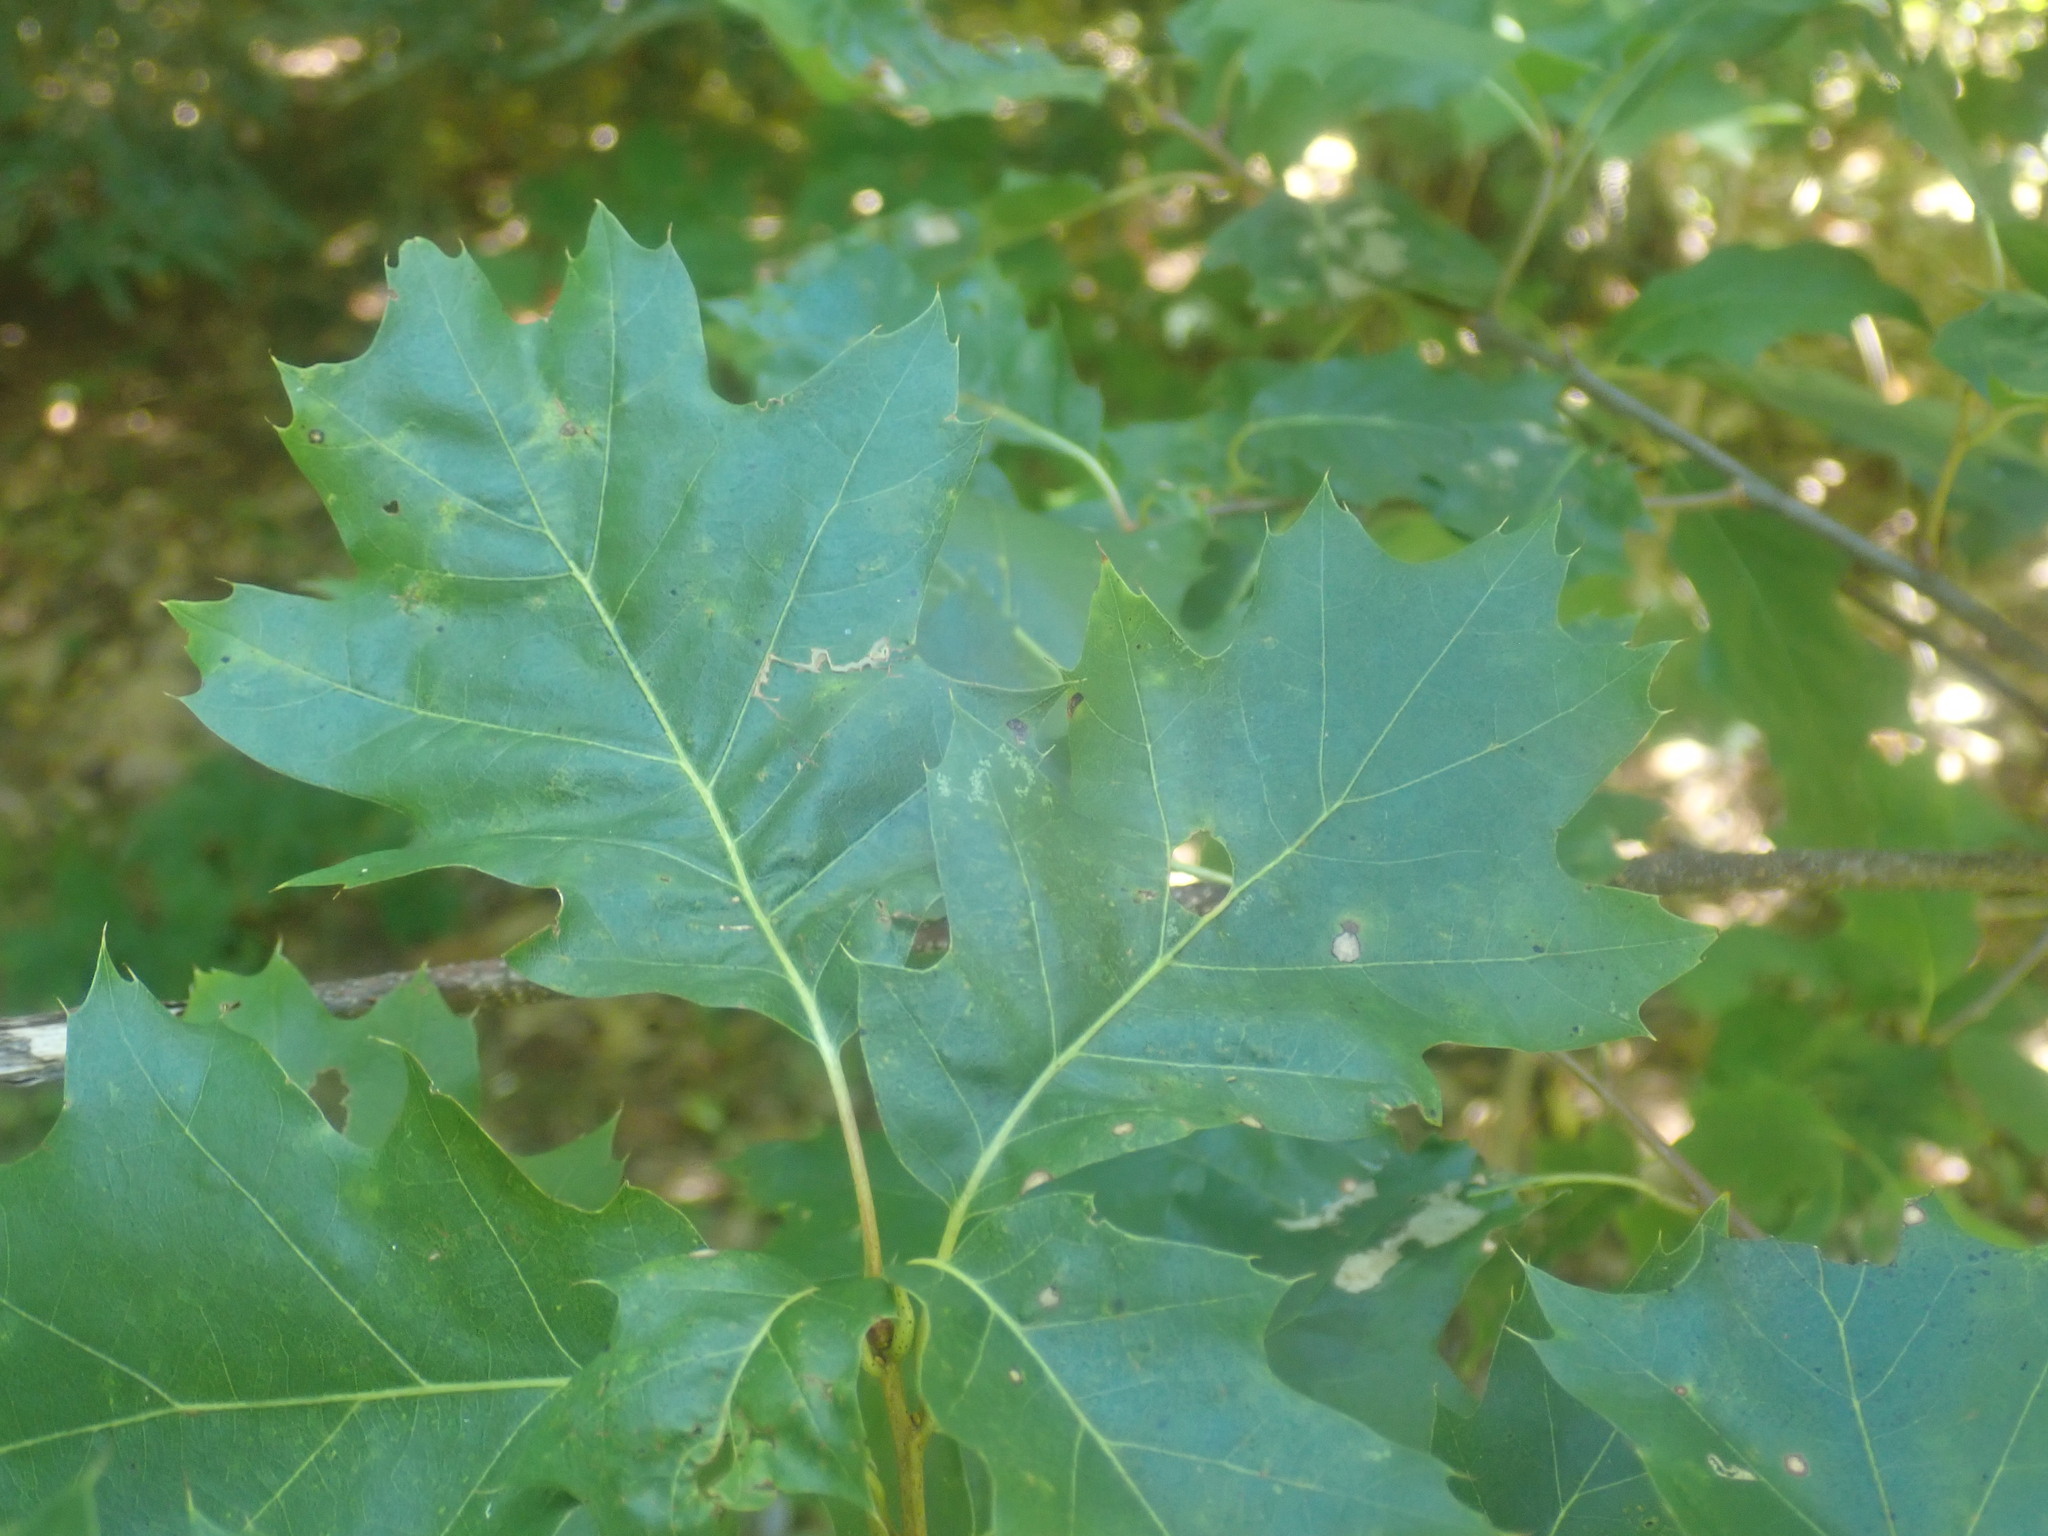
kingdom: Plantae
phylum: Tracheophyta
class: Magnoliopsida
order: Fagales
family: Fagaceae
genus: Quercus
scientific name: Quercus
